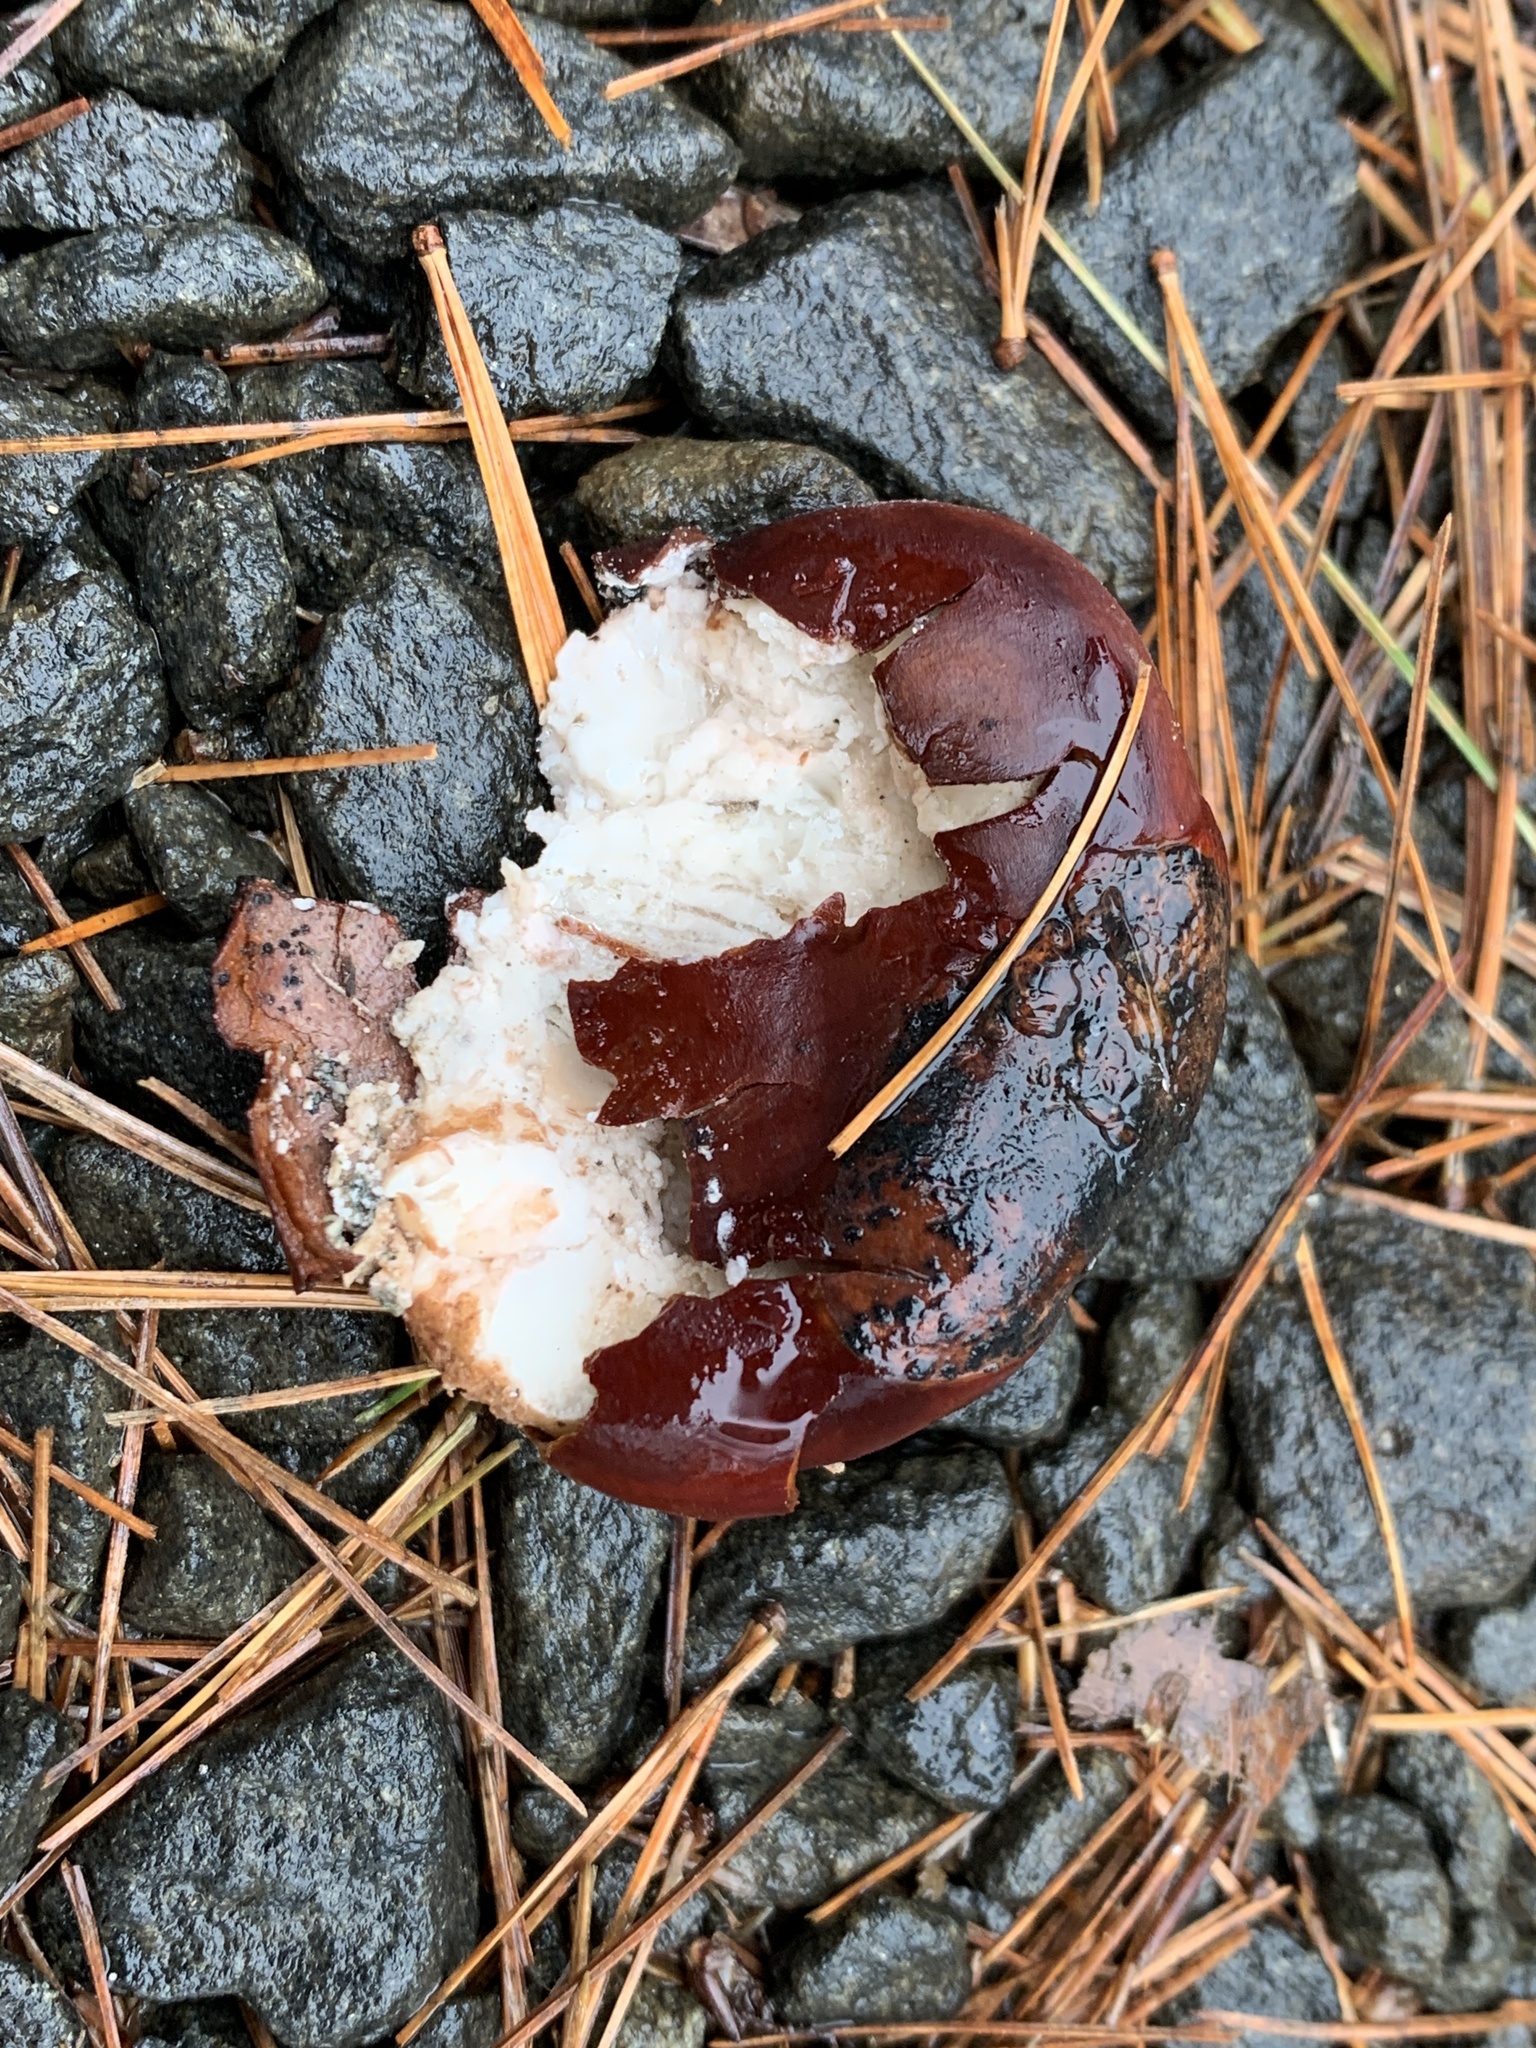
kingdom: Plantae
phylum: Tracheophyta
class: Magnoliopsida
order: Sapindales
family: Sapindaceae
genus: Aesculus
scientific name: Aesculus hippocastanum
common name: Horse-chestnut
